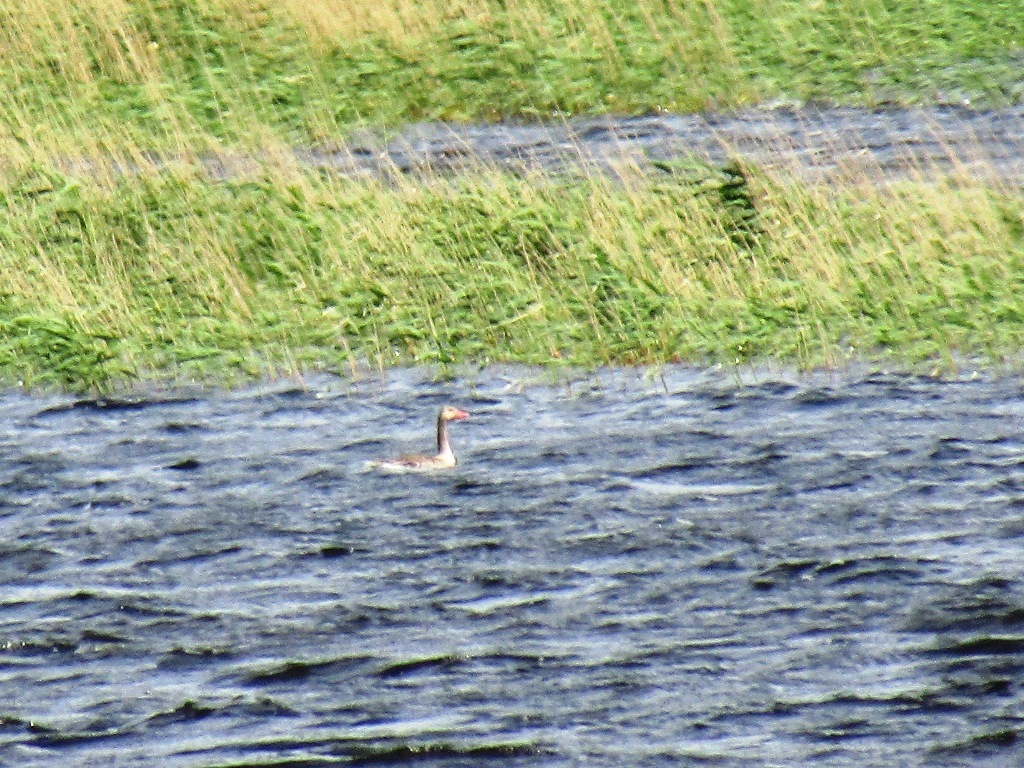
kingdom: Animalia
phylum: Chordata
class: Aves
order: Anseriformes
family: Anatidae
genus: Anser
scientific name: Anser anser
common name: Greylag goose
